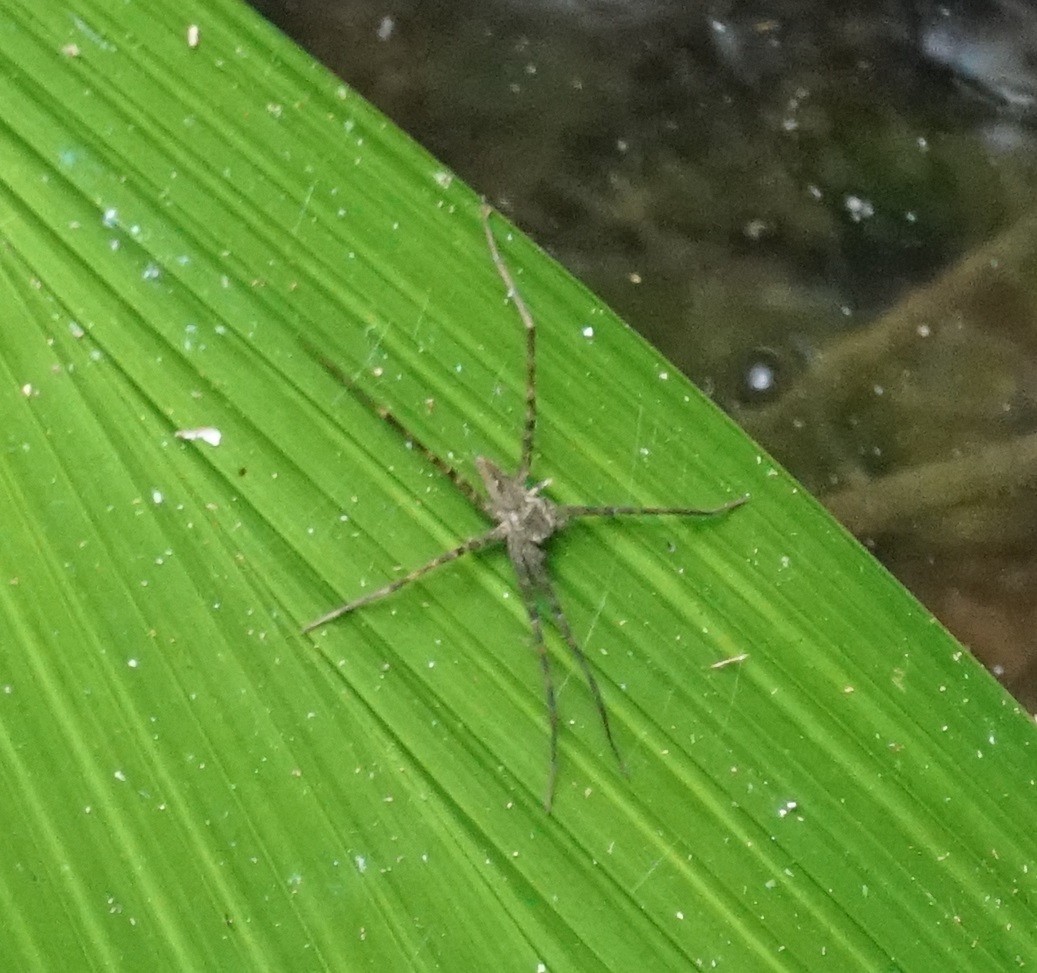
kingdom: Animalia
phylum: Arthropoda
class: Arachnida
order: Araneae
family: Pisauridae
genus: Megadolomedes
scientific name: Megadolomedes trux
